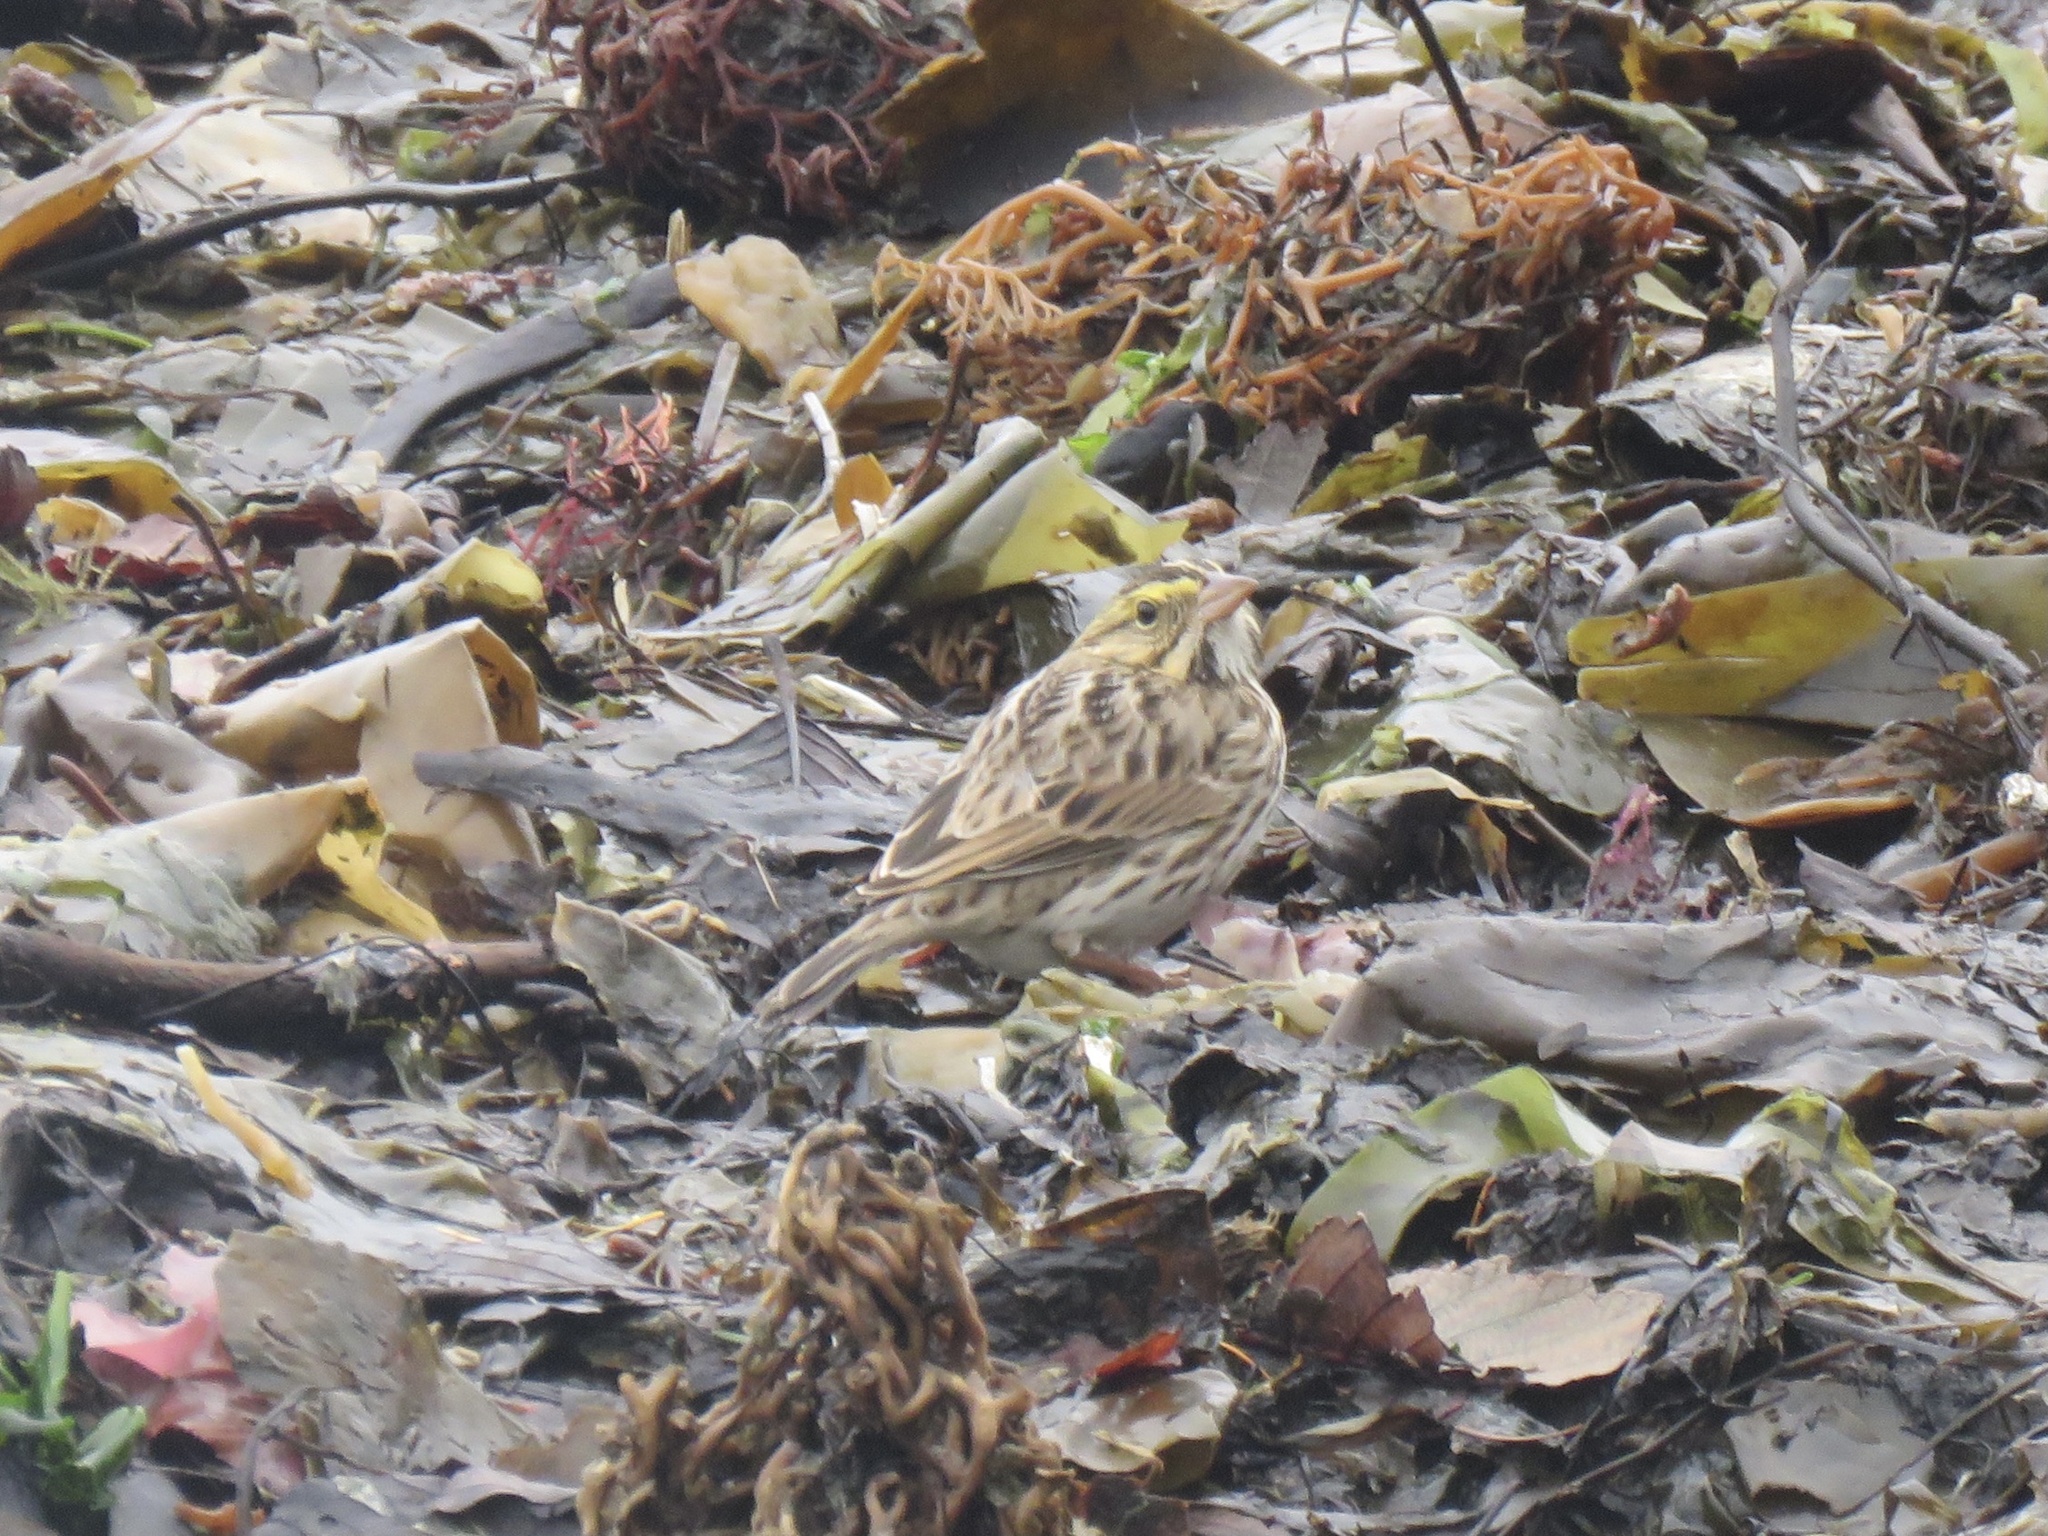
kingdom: Animalia
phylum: Chordata
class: Aves
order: Passeriformes
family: Passerellidae
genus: Passerculus
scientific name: Passerculus sandwichensis
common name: Savannah sparrow
